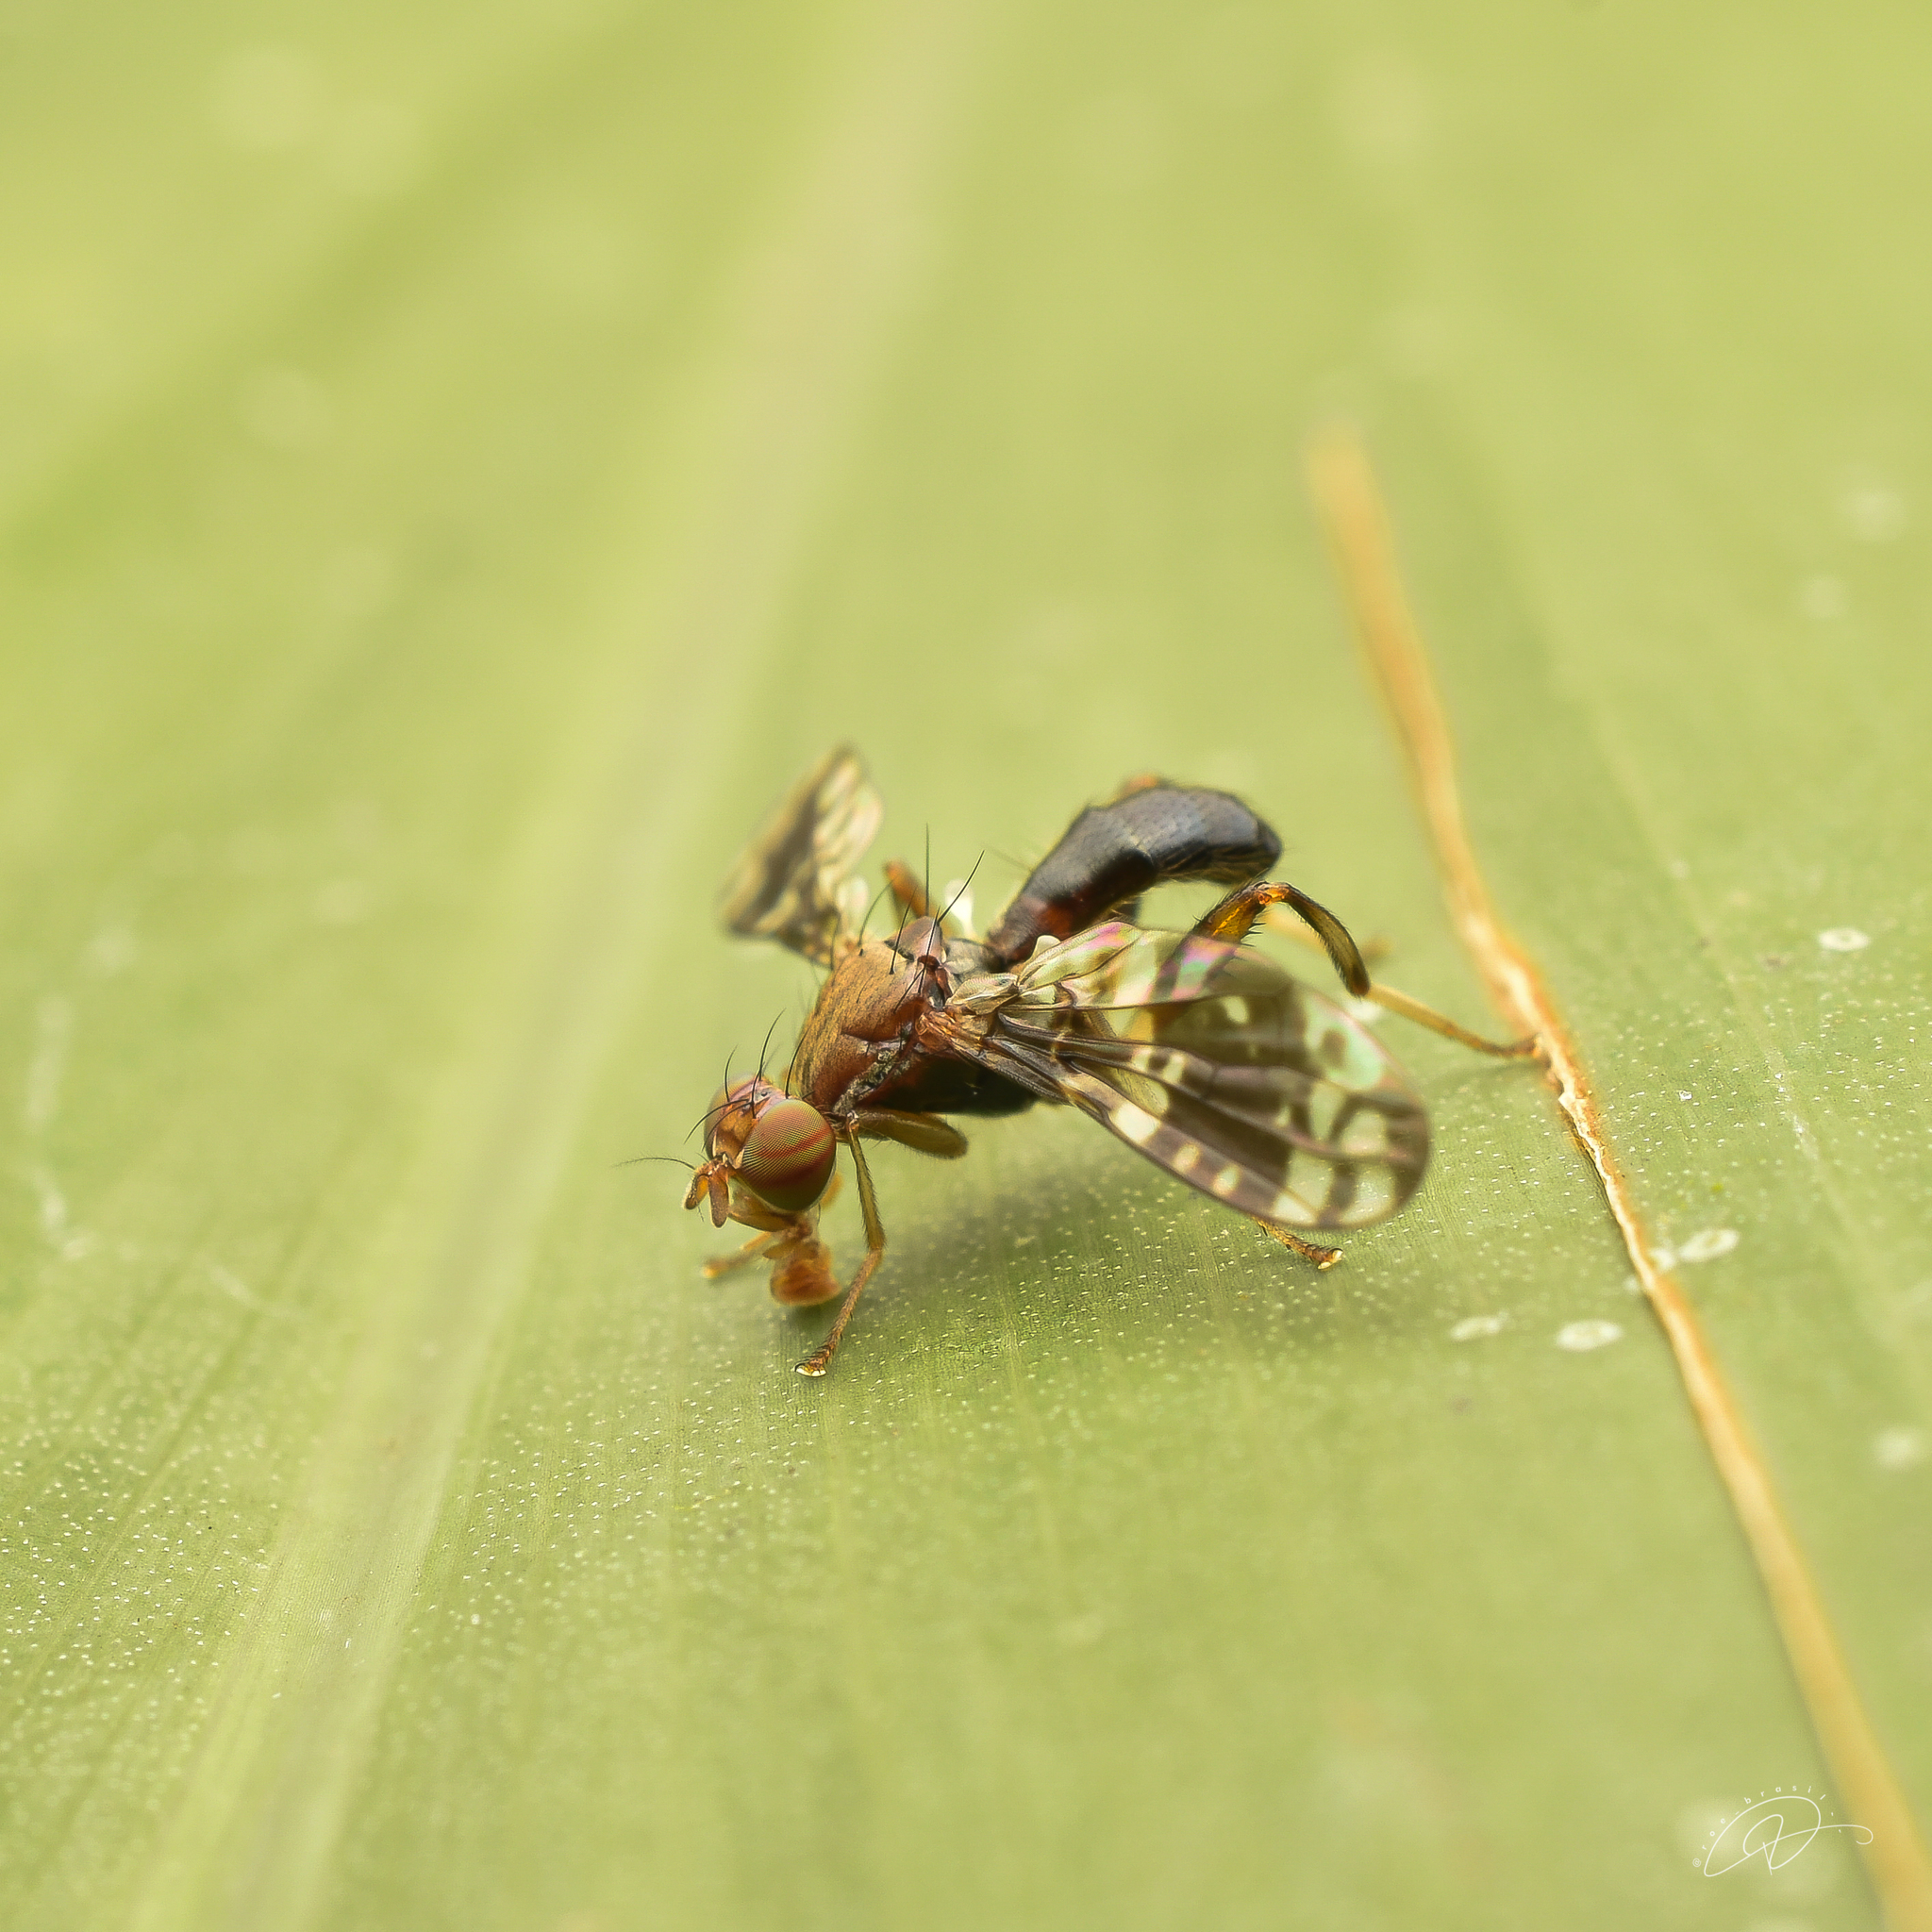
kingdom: Animalia
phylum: Arthropoda
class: Insecta
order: Diptera
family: Richardiidae
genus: Richardia
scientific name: Richardia tephritina
